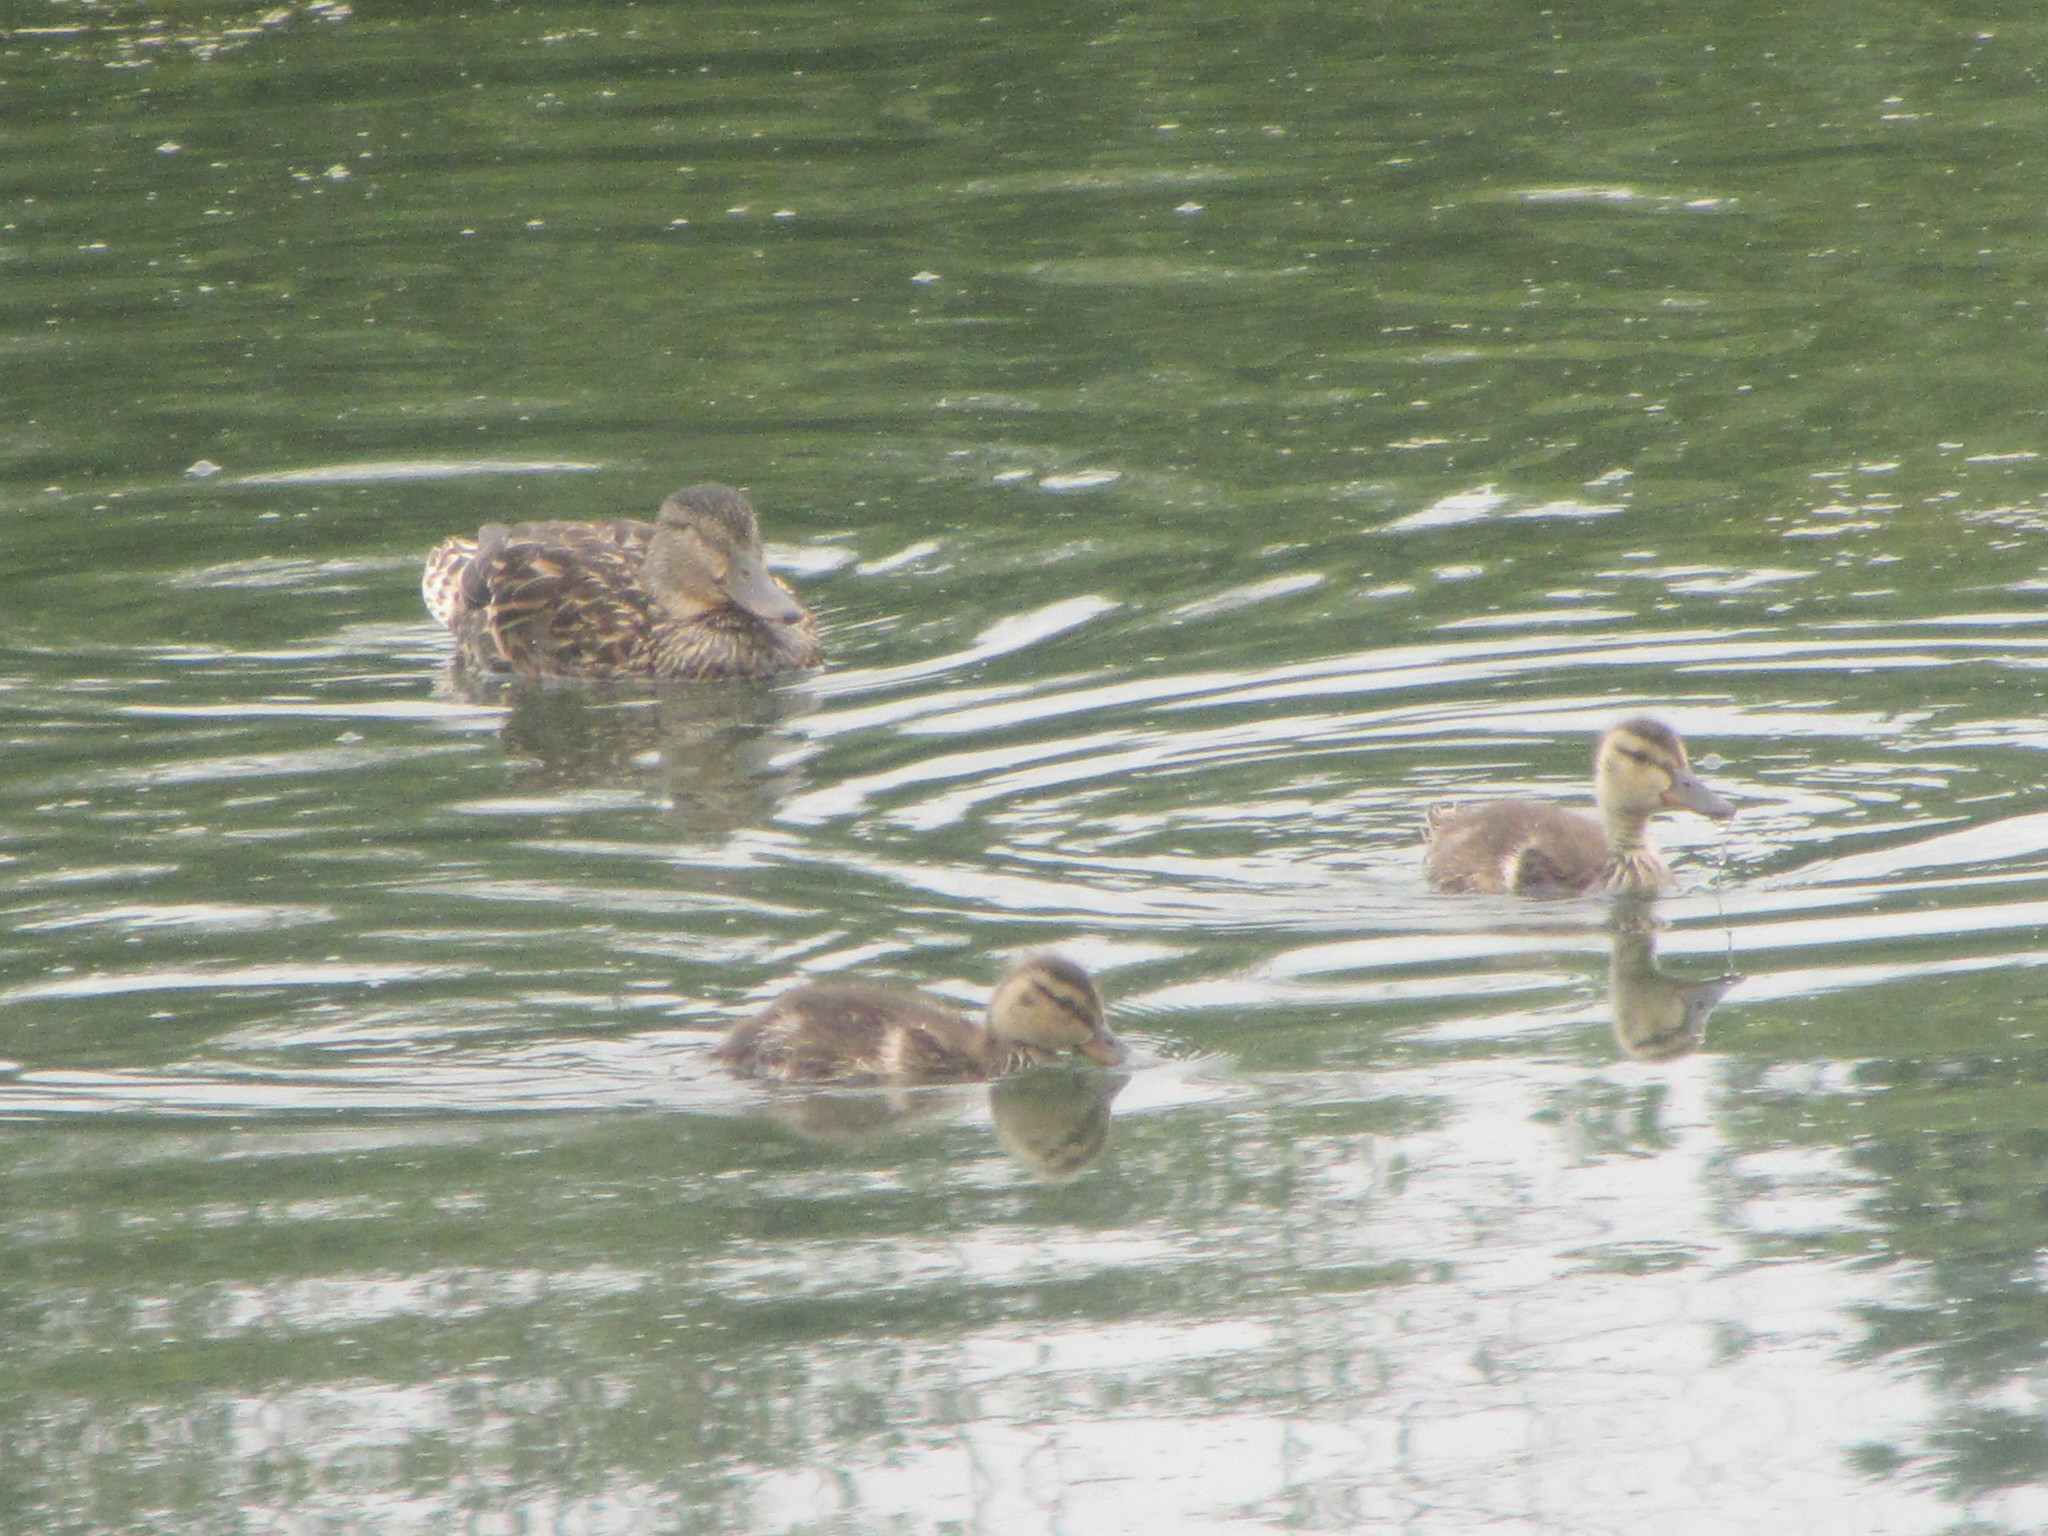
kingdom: Animalia
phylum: Chordata
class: Aves
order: Anseriformes
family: Anatidae
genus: Anas
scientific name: Anas platyrhynchos
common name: Mallard
